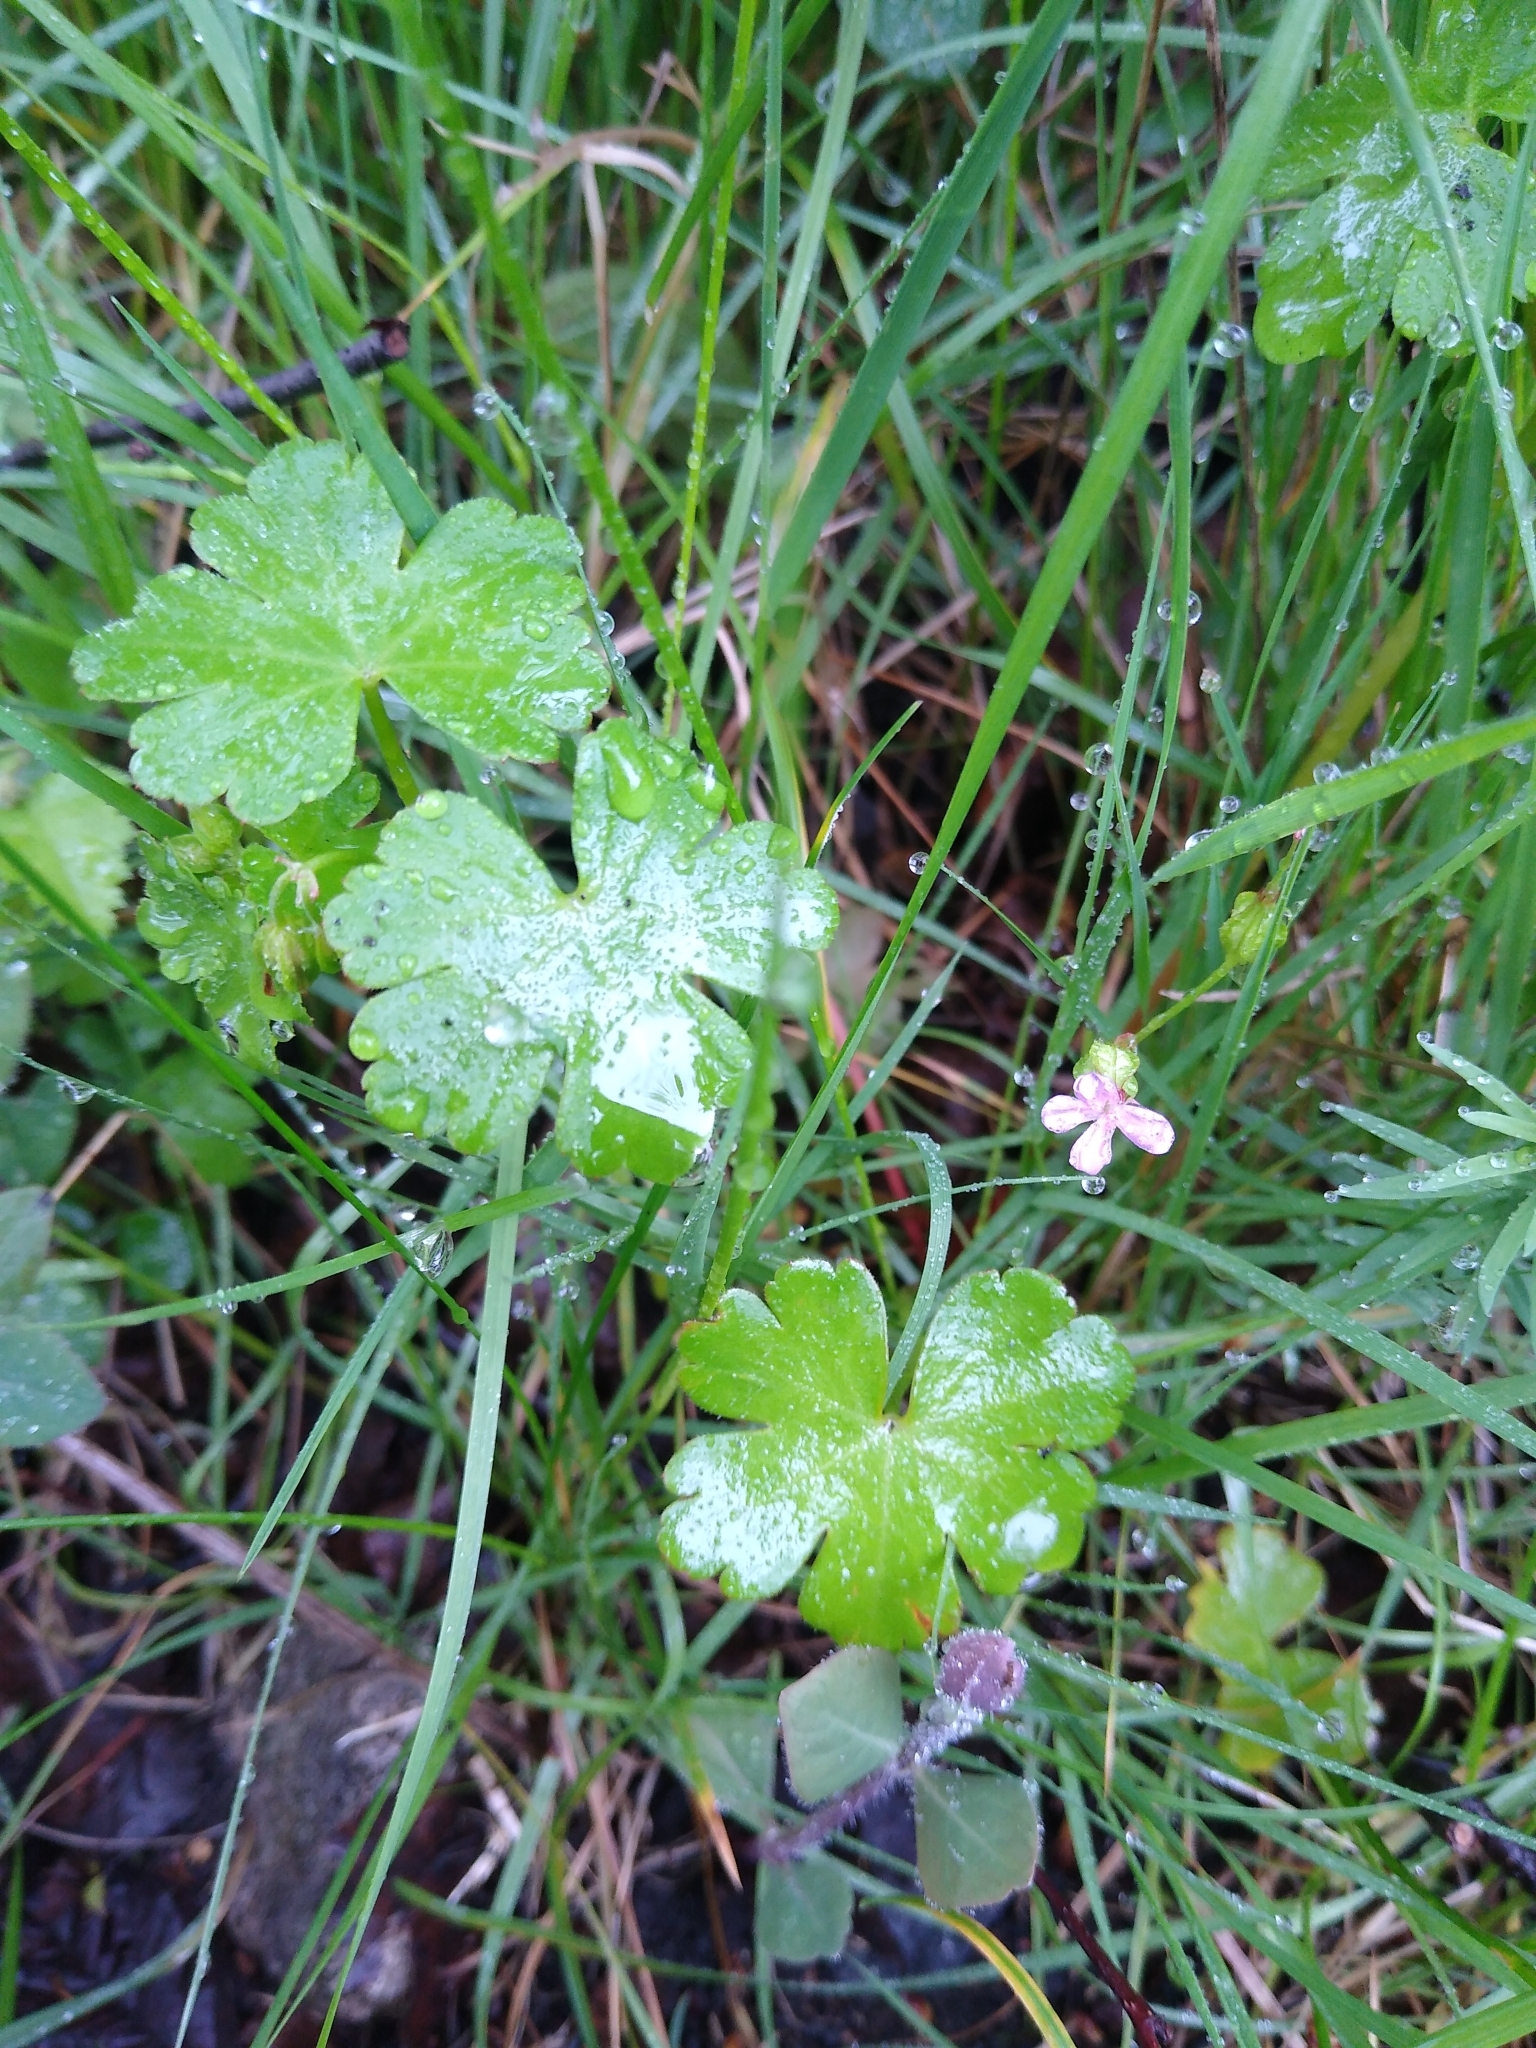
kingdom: Plantae
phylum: Tracheophyta
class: Magnoliopsida
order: Geraniales
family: Geraniaceae
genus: Geranium
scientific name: Geranium lucidum
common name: Shining crane's-bill
